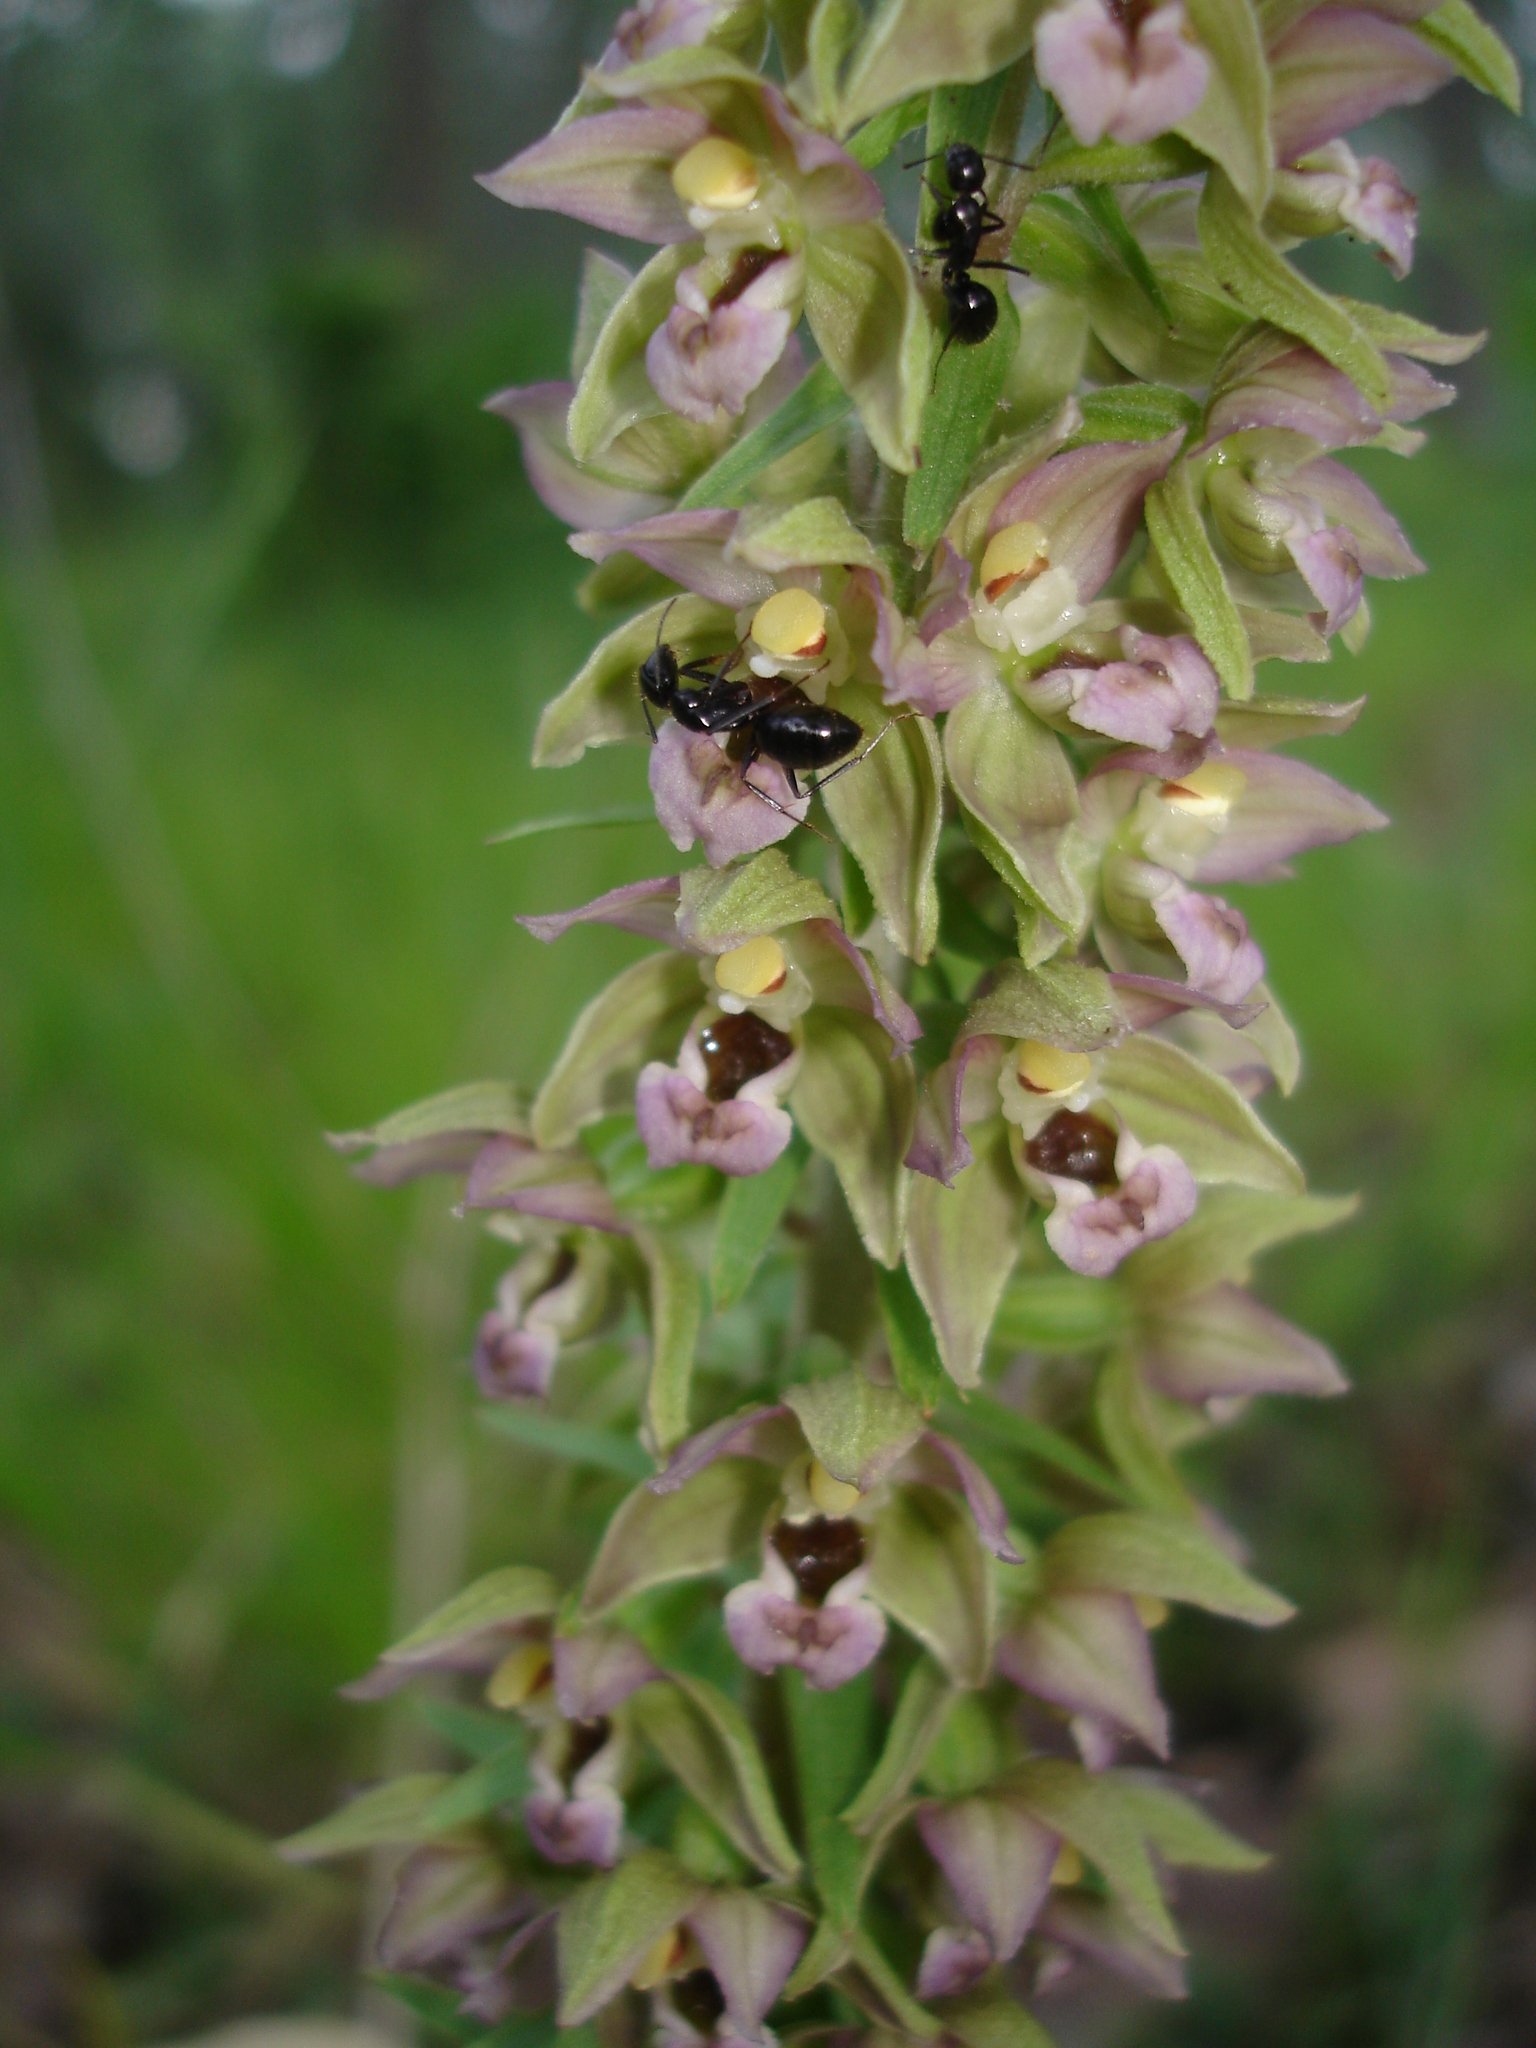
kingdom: Plantae
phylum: Tracheophyta
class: Liliopsida
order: Asparagales
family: Orchidaceae
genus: Epipactis
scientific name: Epipactis helleborine
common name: Broad-leaved helleborine
